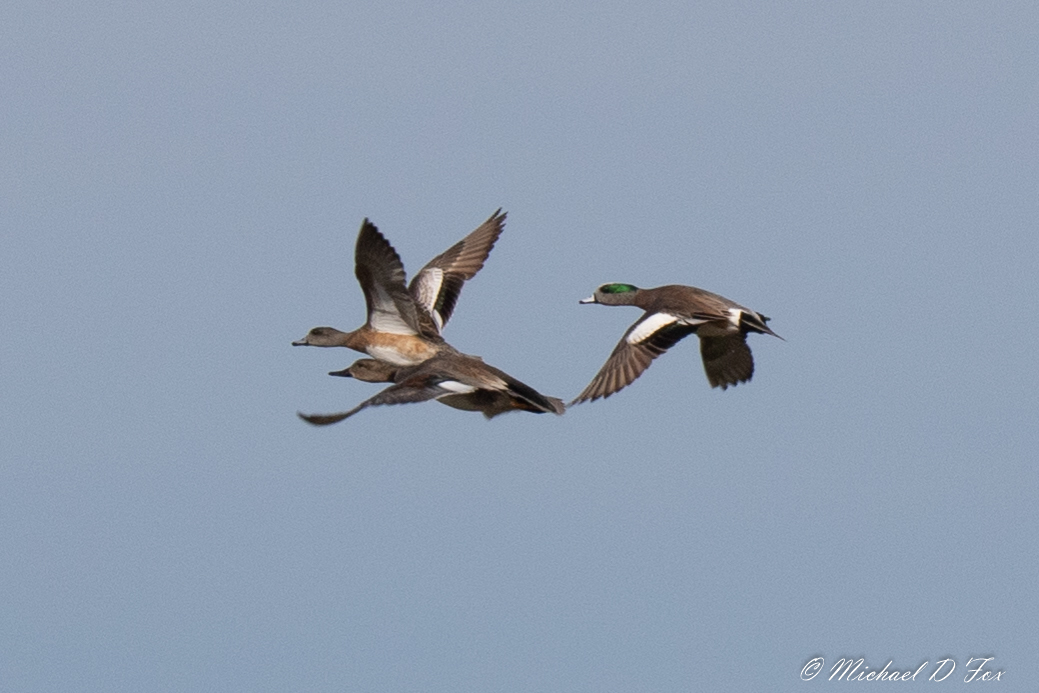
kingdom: Animalia
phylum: Chordata
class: Aves
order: Anseriformes
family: Anatidae
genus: Mareca
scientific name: Mareca americana
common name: American wigeon
